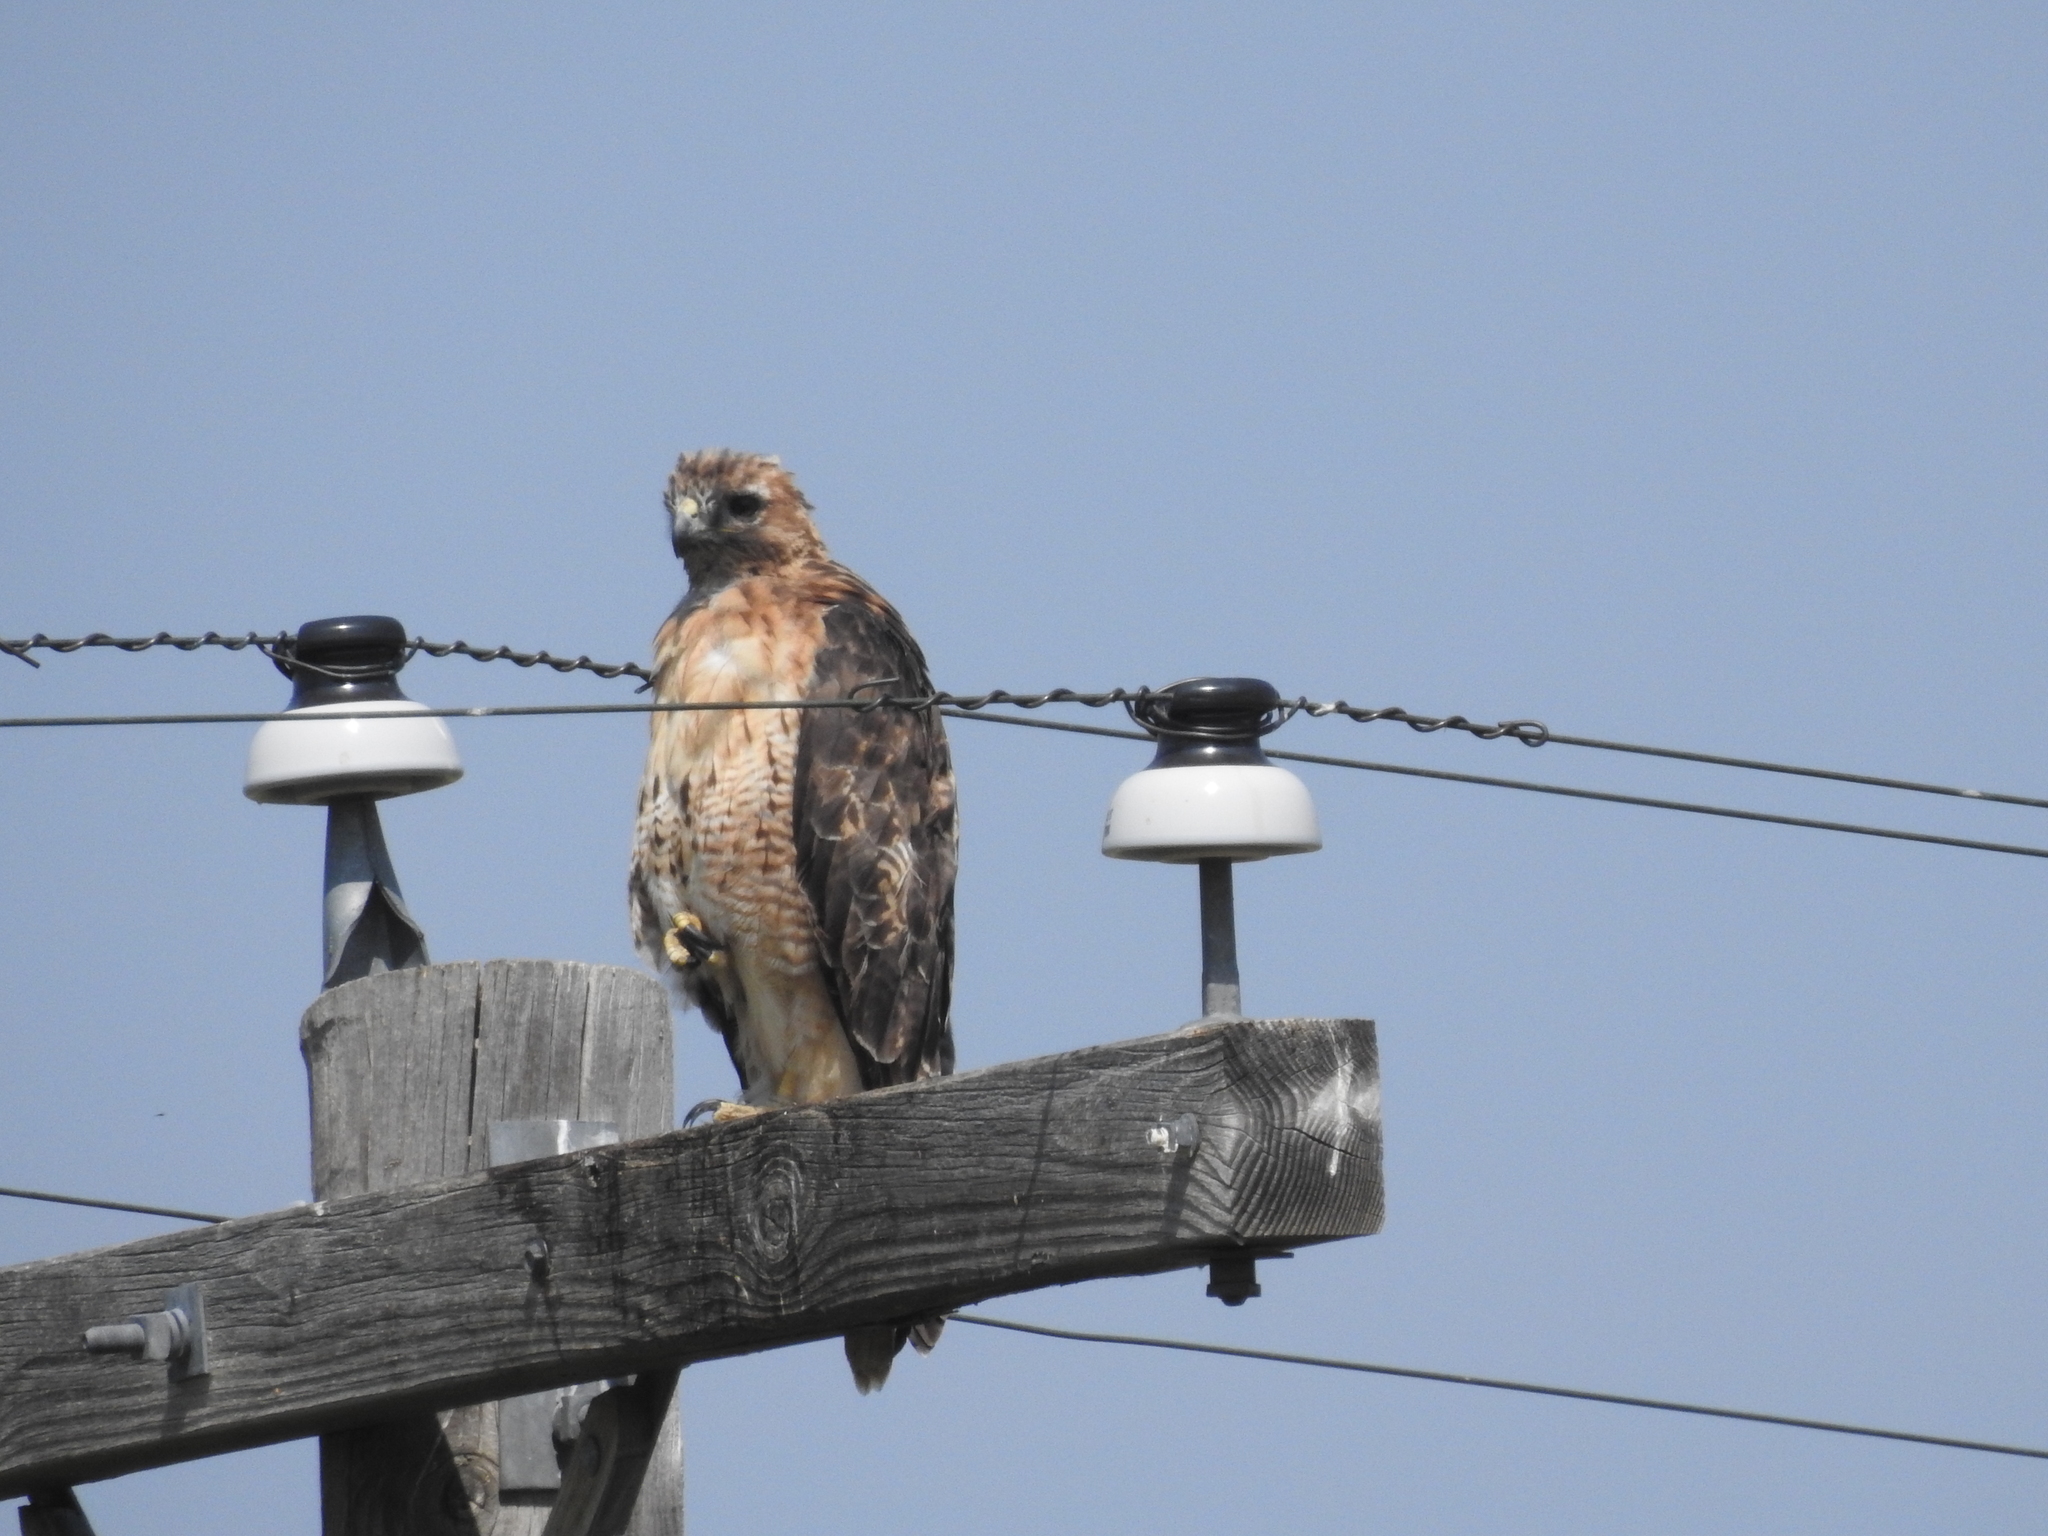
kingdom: Animalia
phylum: Chordata
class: Aves
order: Accipitriformes
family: Accipitridae
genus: Buteo
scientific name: Buteo jamaicensis
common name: Red-tailed hawk
